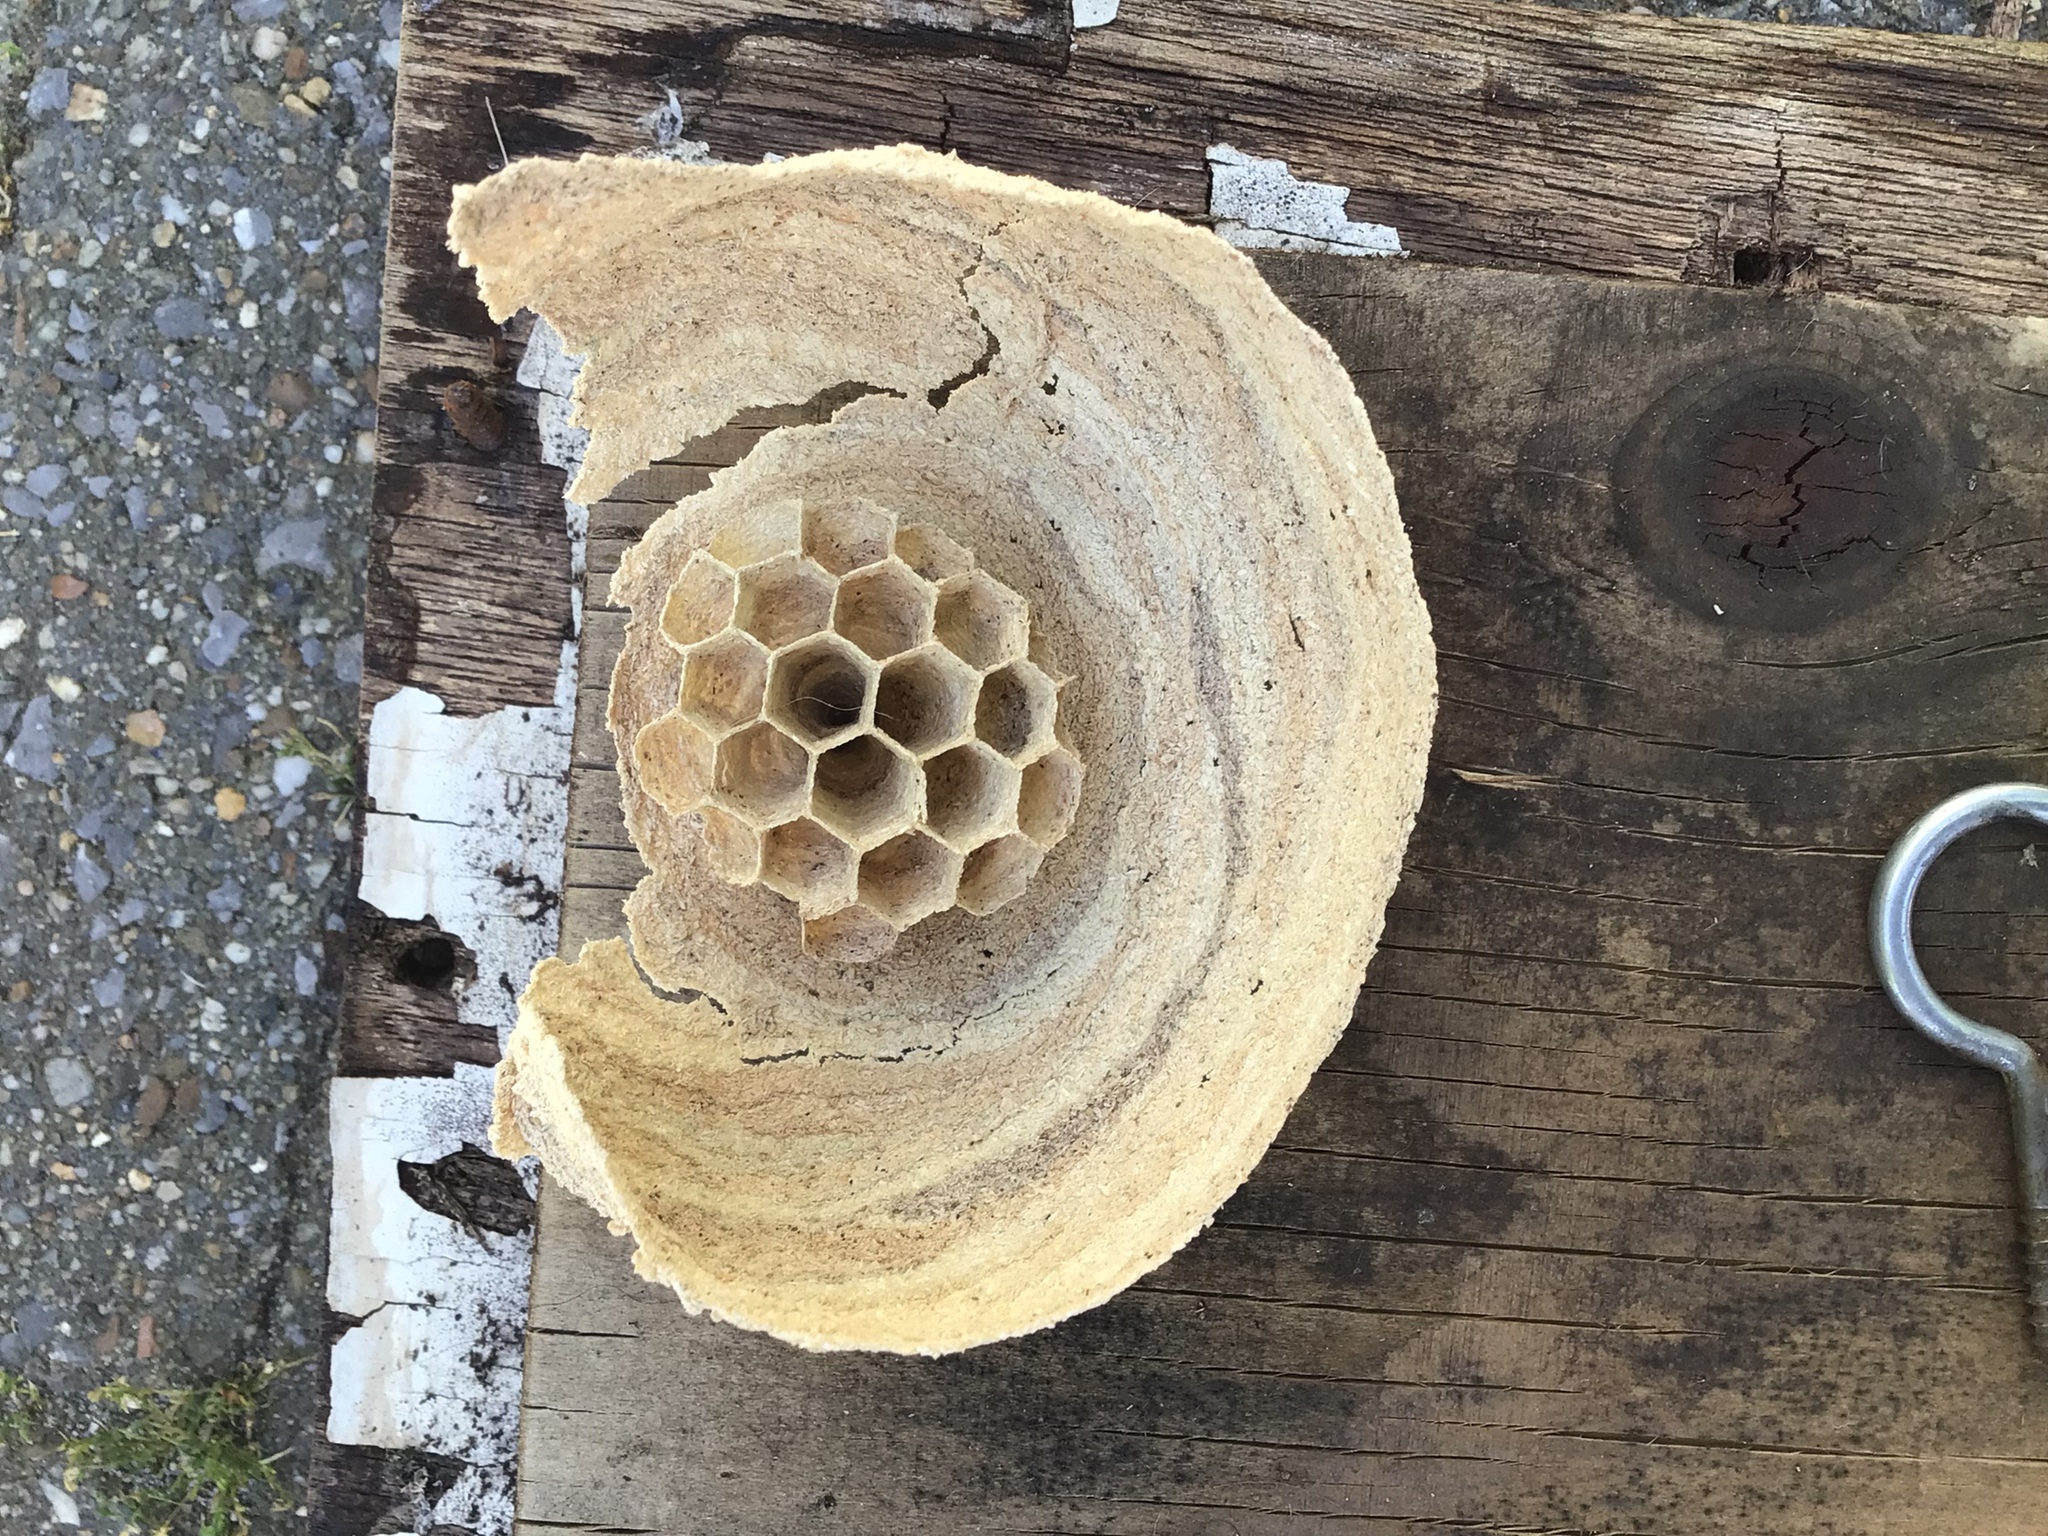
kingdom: Animalia
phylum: Arthropoda
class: Insecta
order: Hymenoptera
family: Vespidae
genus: Vespa
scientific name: Vespa crabro
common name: Hornet
